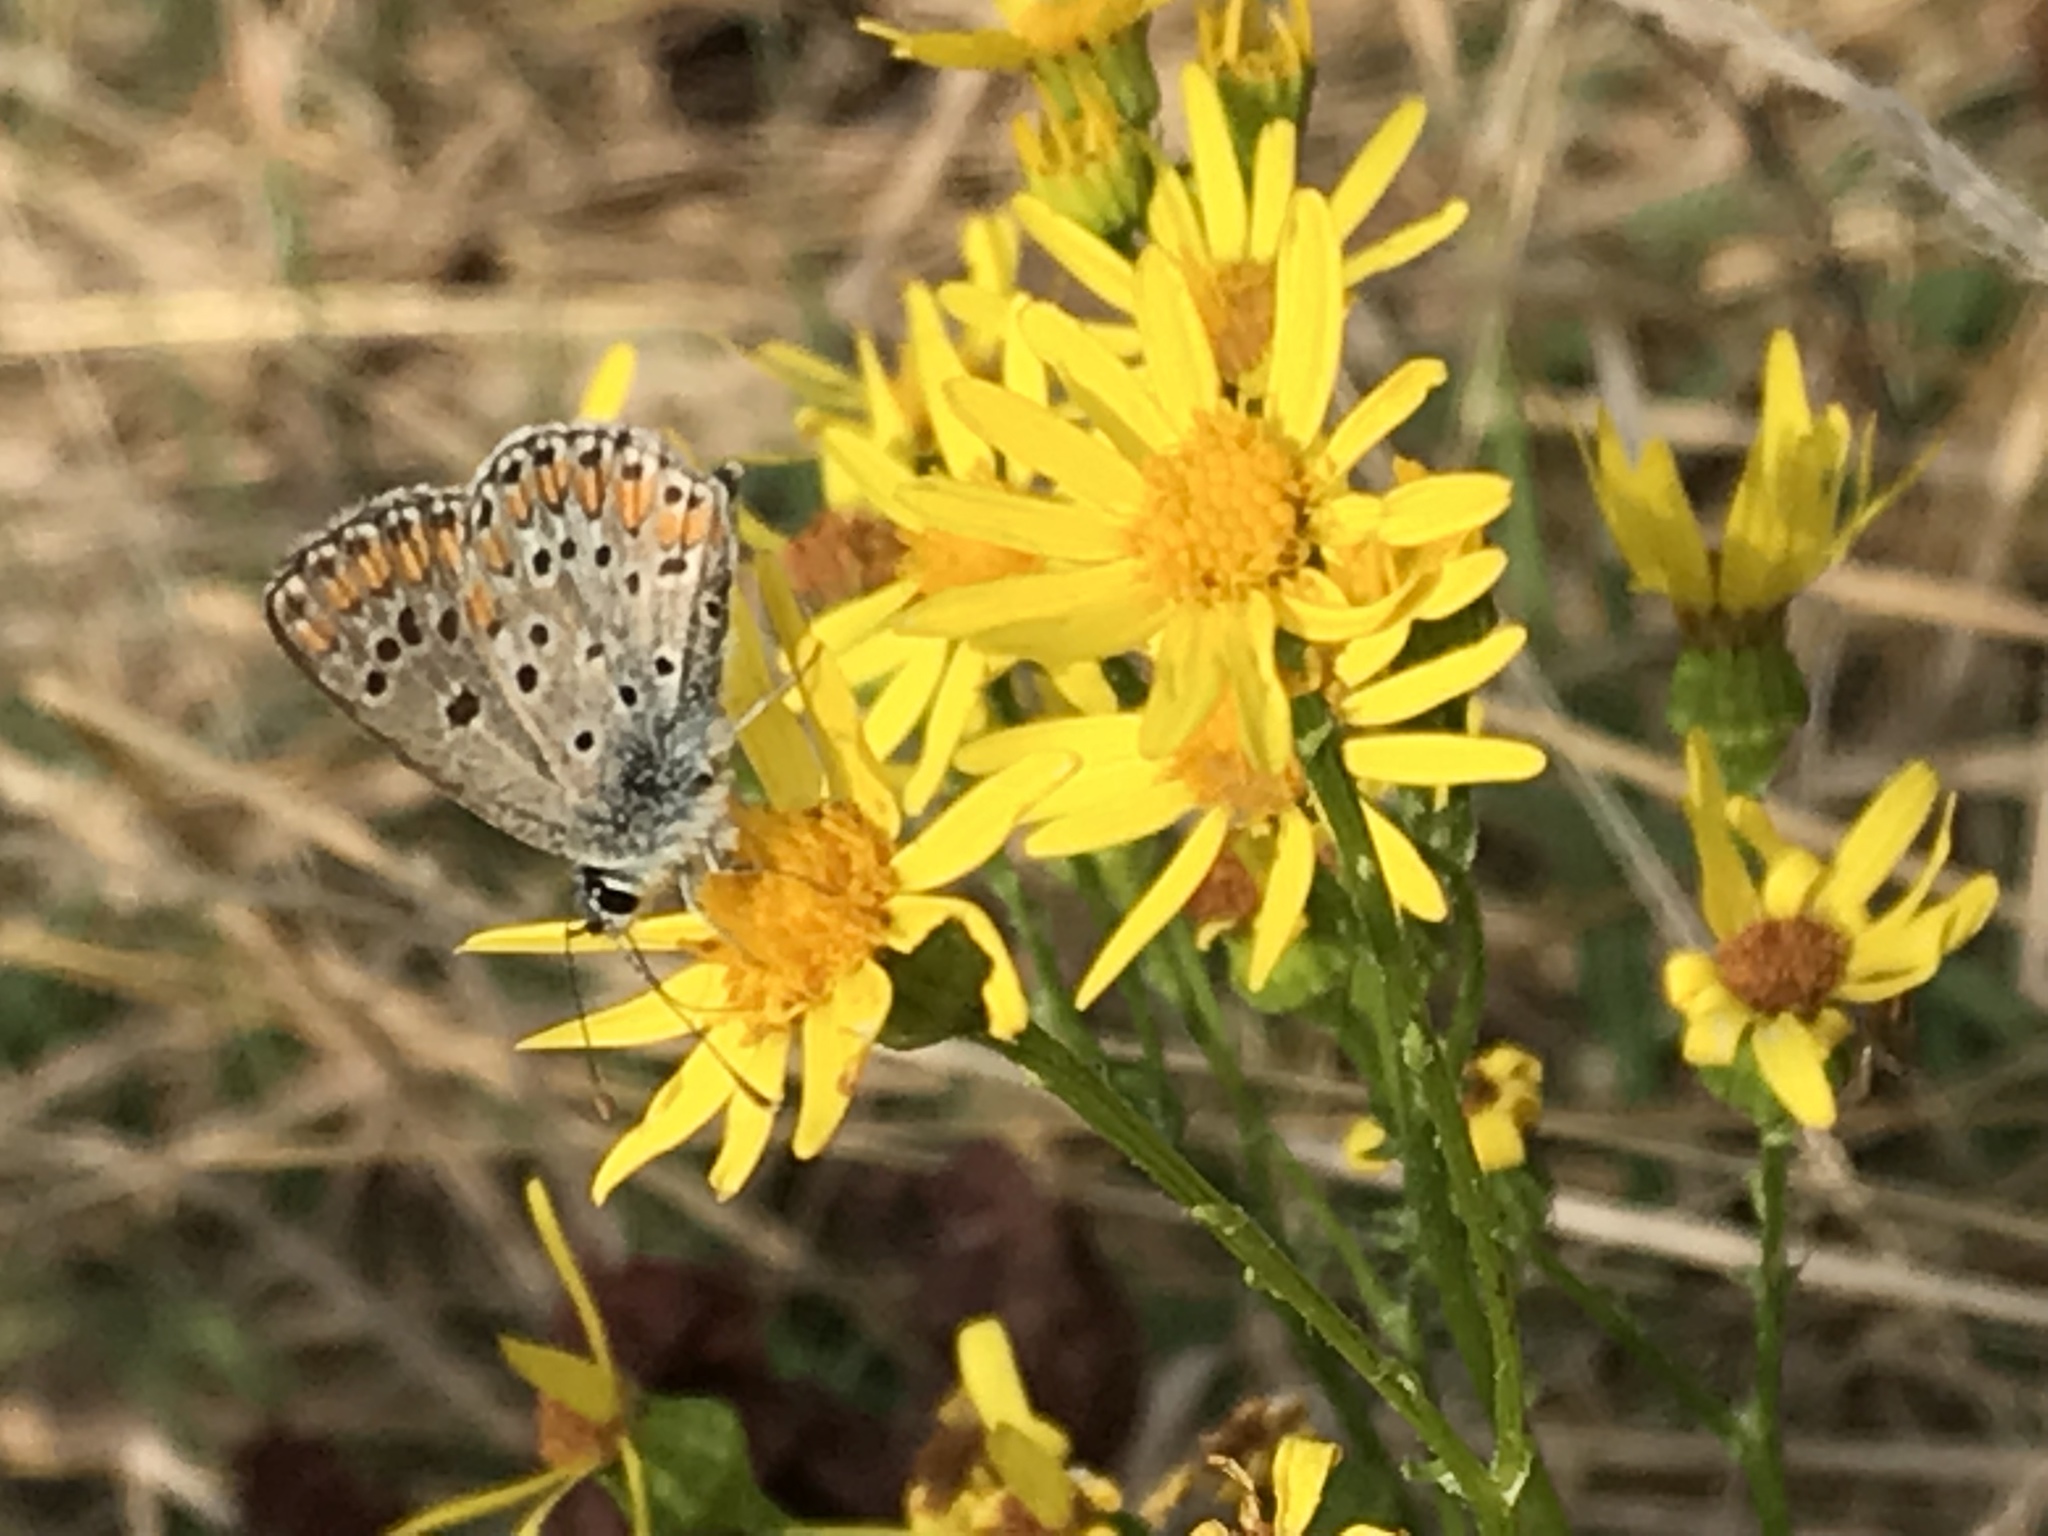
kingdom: Animalia
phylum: Arthropoda
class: Insecta
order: Lepidoptera
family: Lycaenidae
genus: Aricia
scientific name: Aricia agestis
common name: Brown argus
